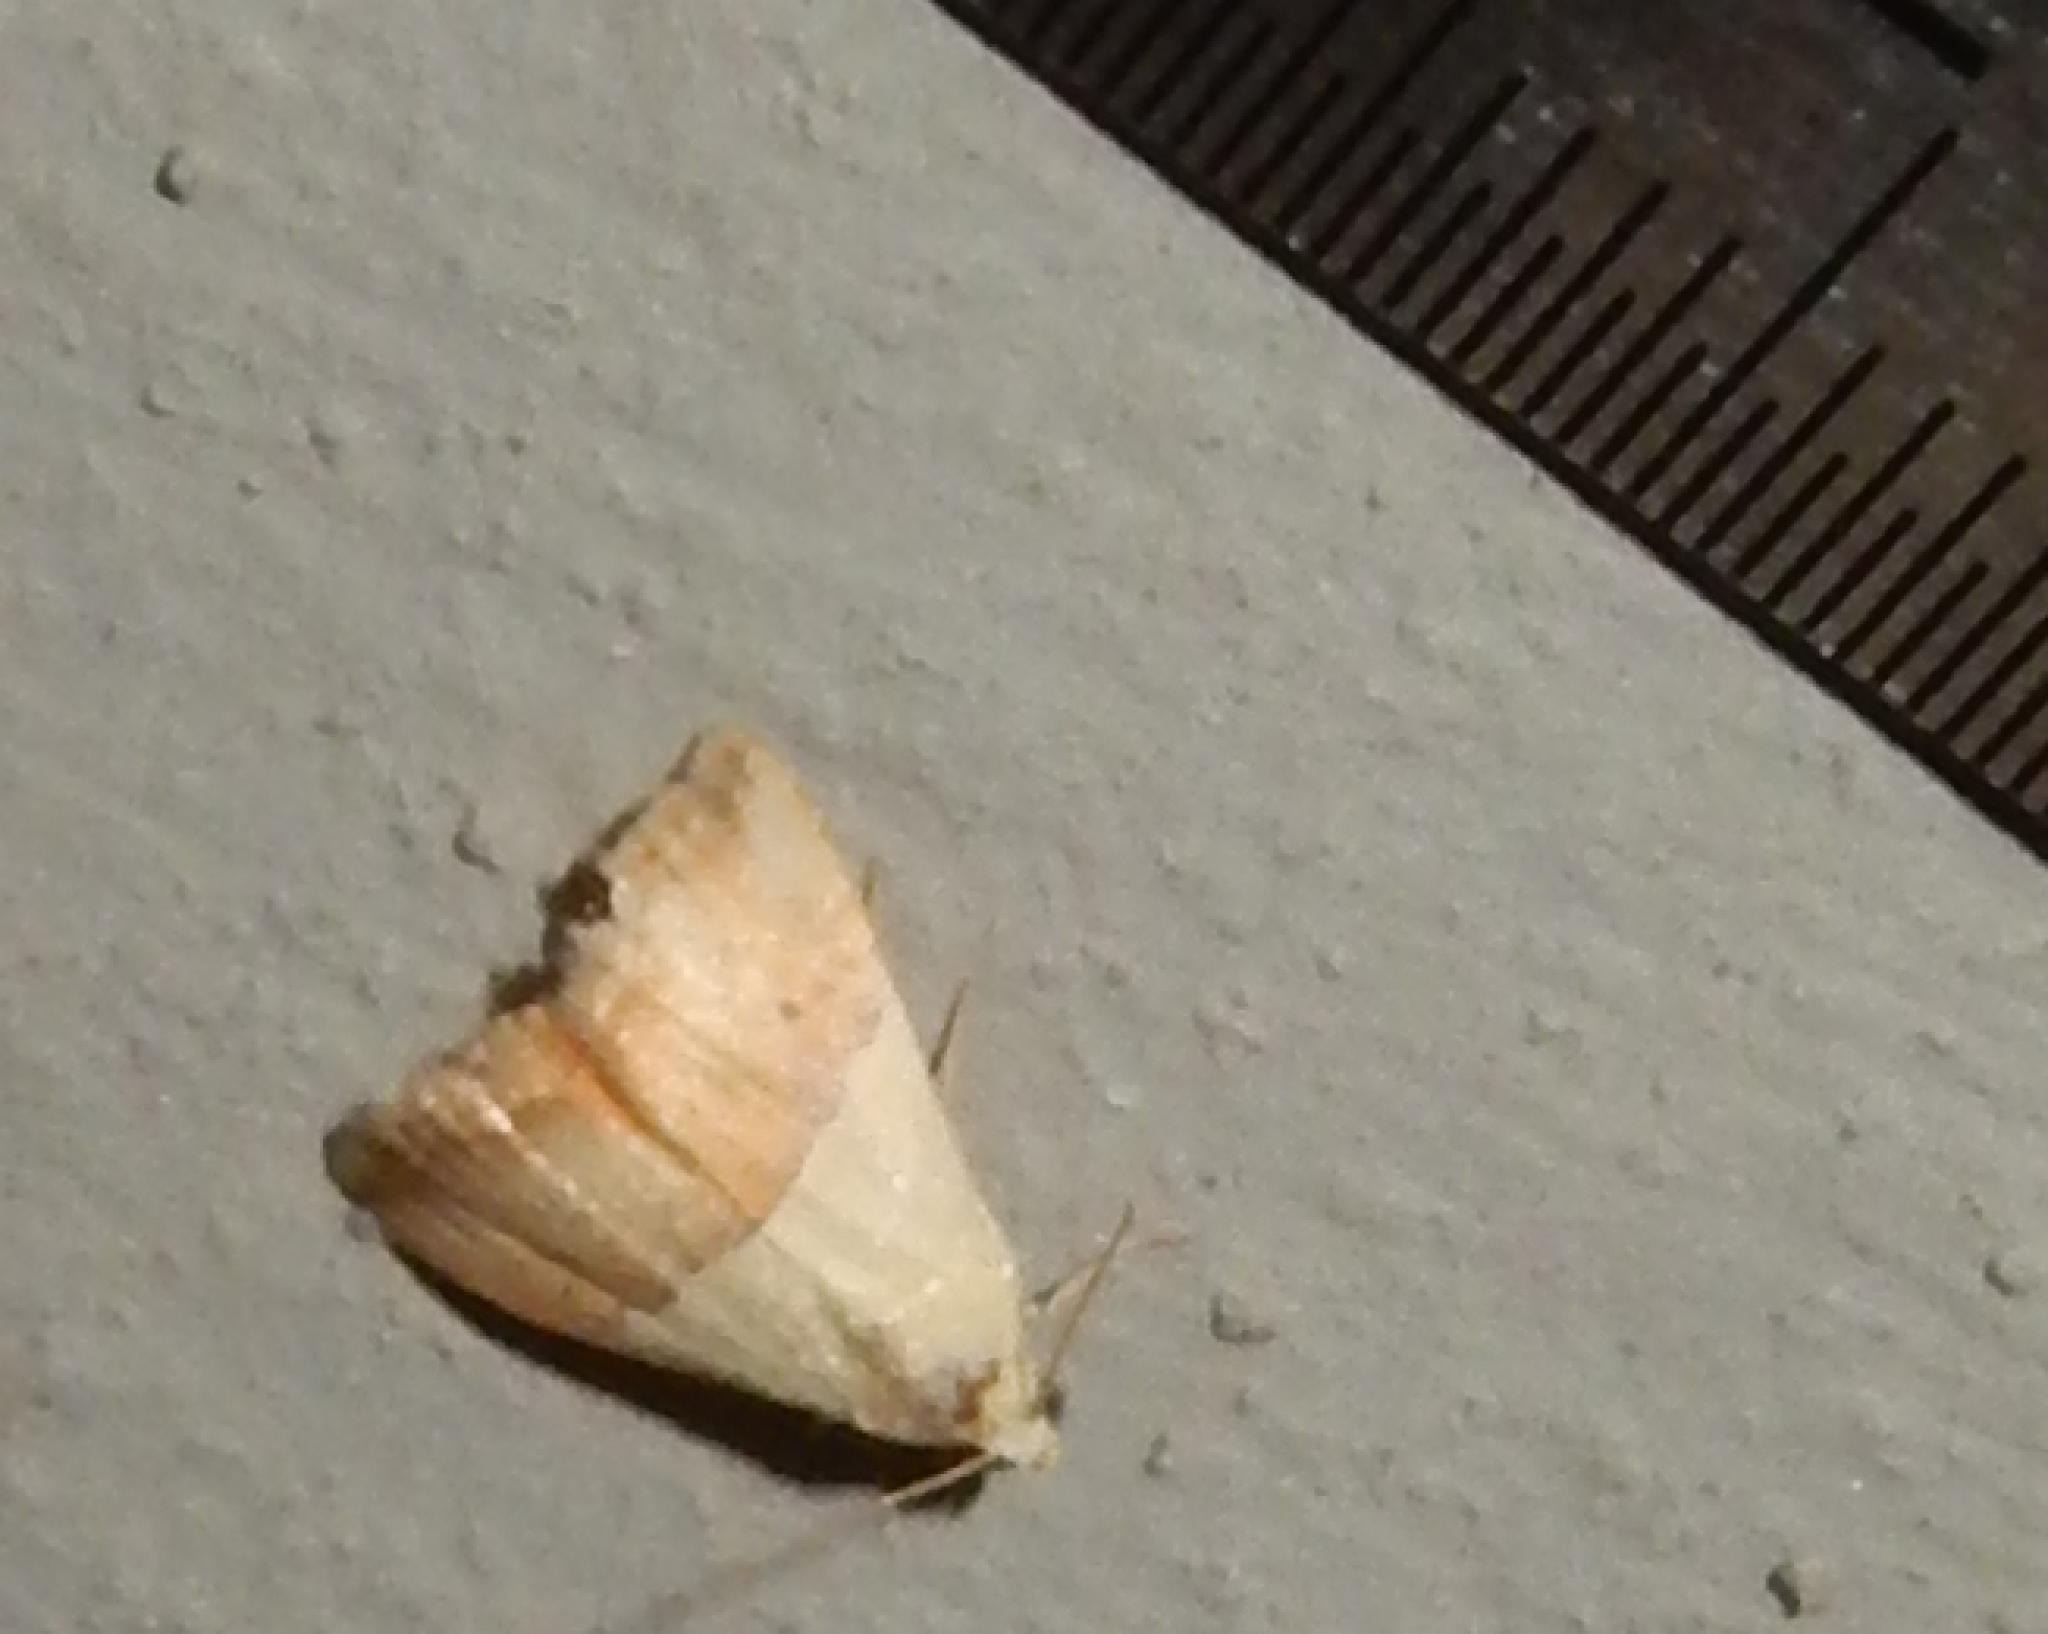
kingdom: Animalia
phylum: Arthropoda
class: Insecta
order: Lepidoptera
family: Noctuidae
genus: Eublemma
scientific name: Eublemma caffrorum
